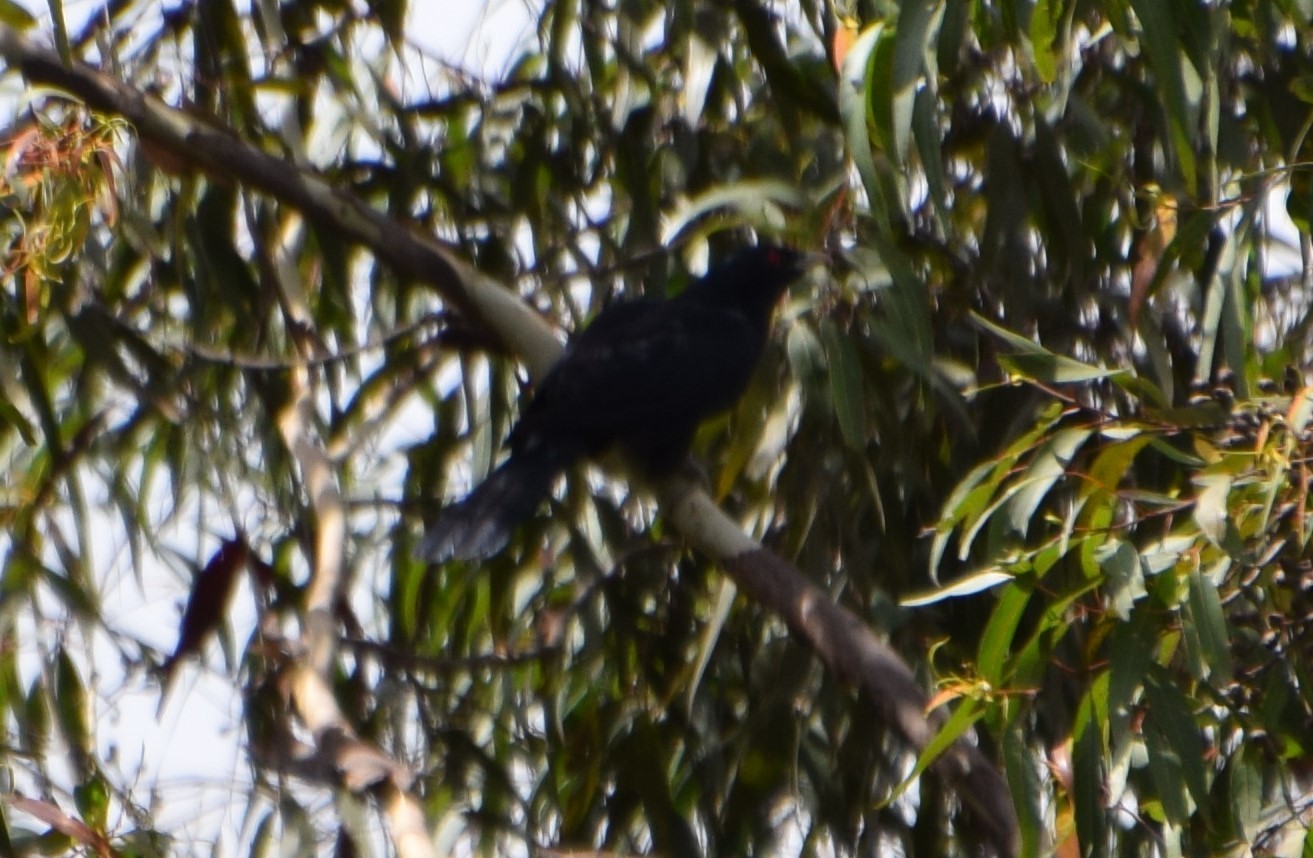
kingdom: Animalia
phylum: Chordata
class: Aves
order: Cuculiformes
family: Cuculidae
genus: Eudynamys
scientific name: Eudynamys orientalis
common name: Pacific koel
